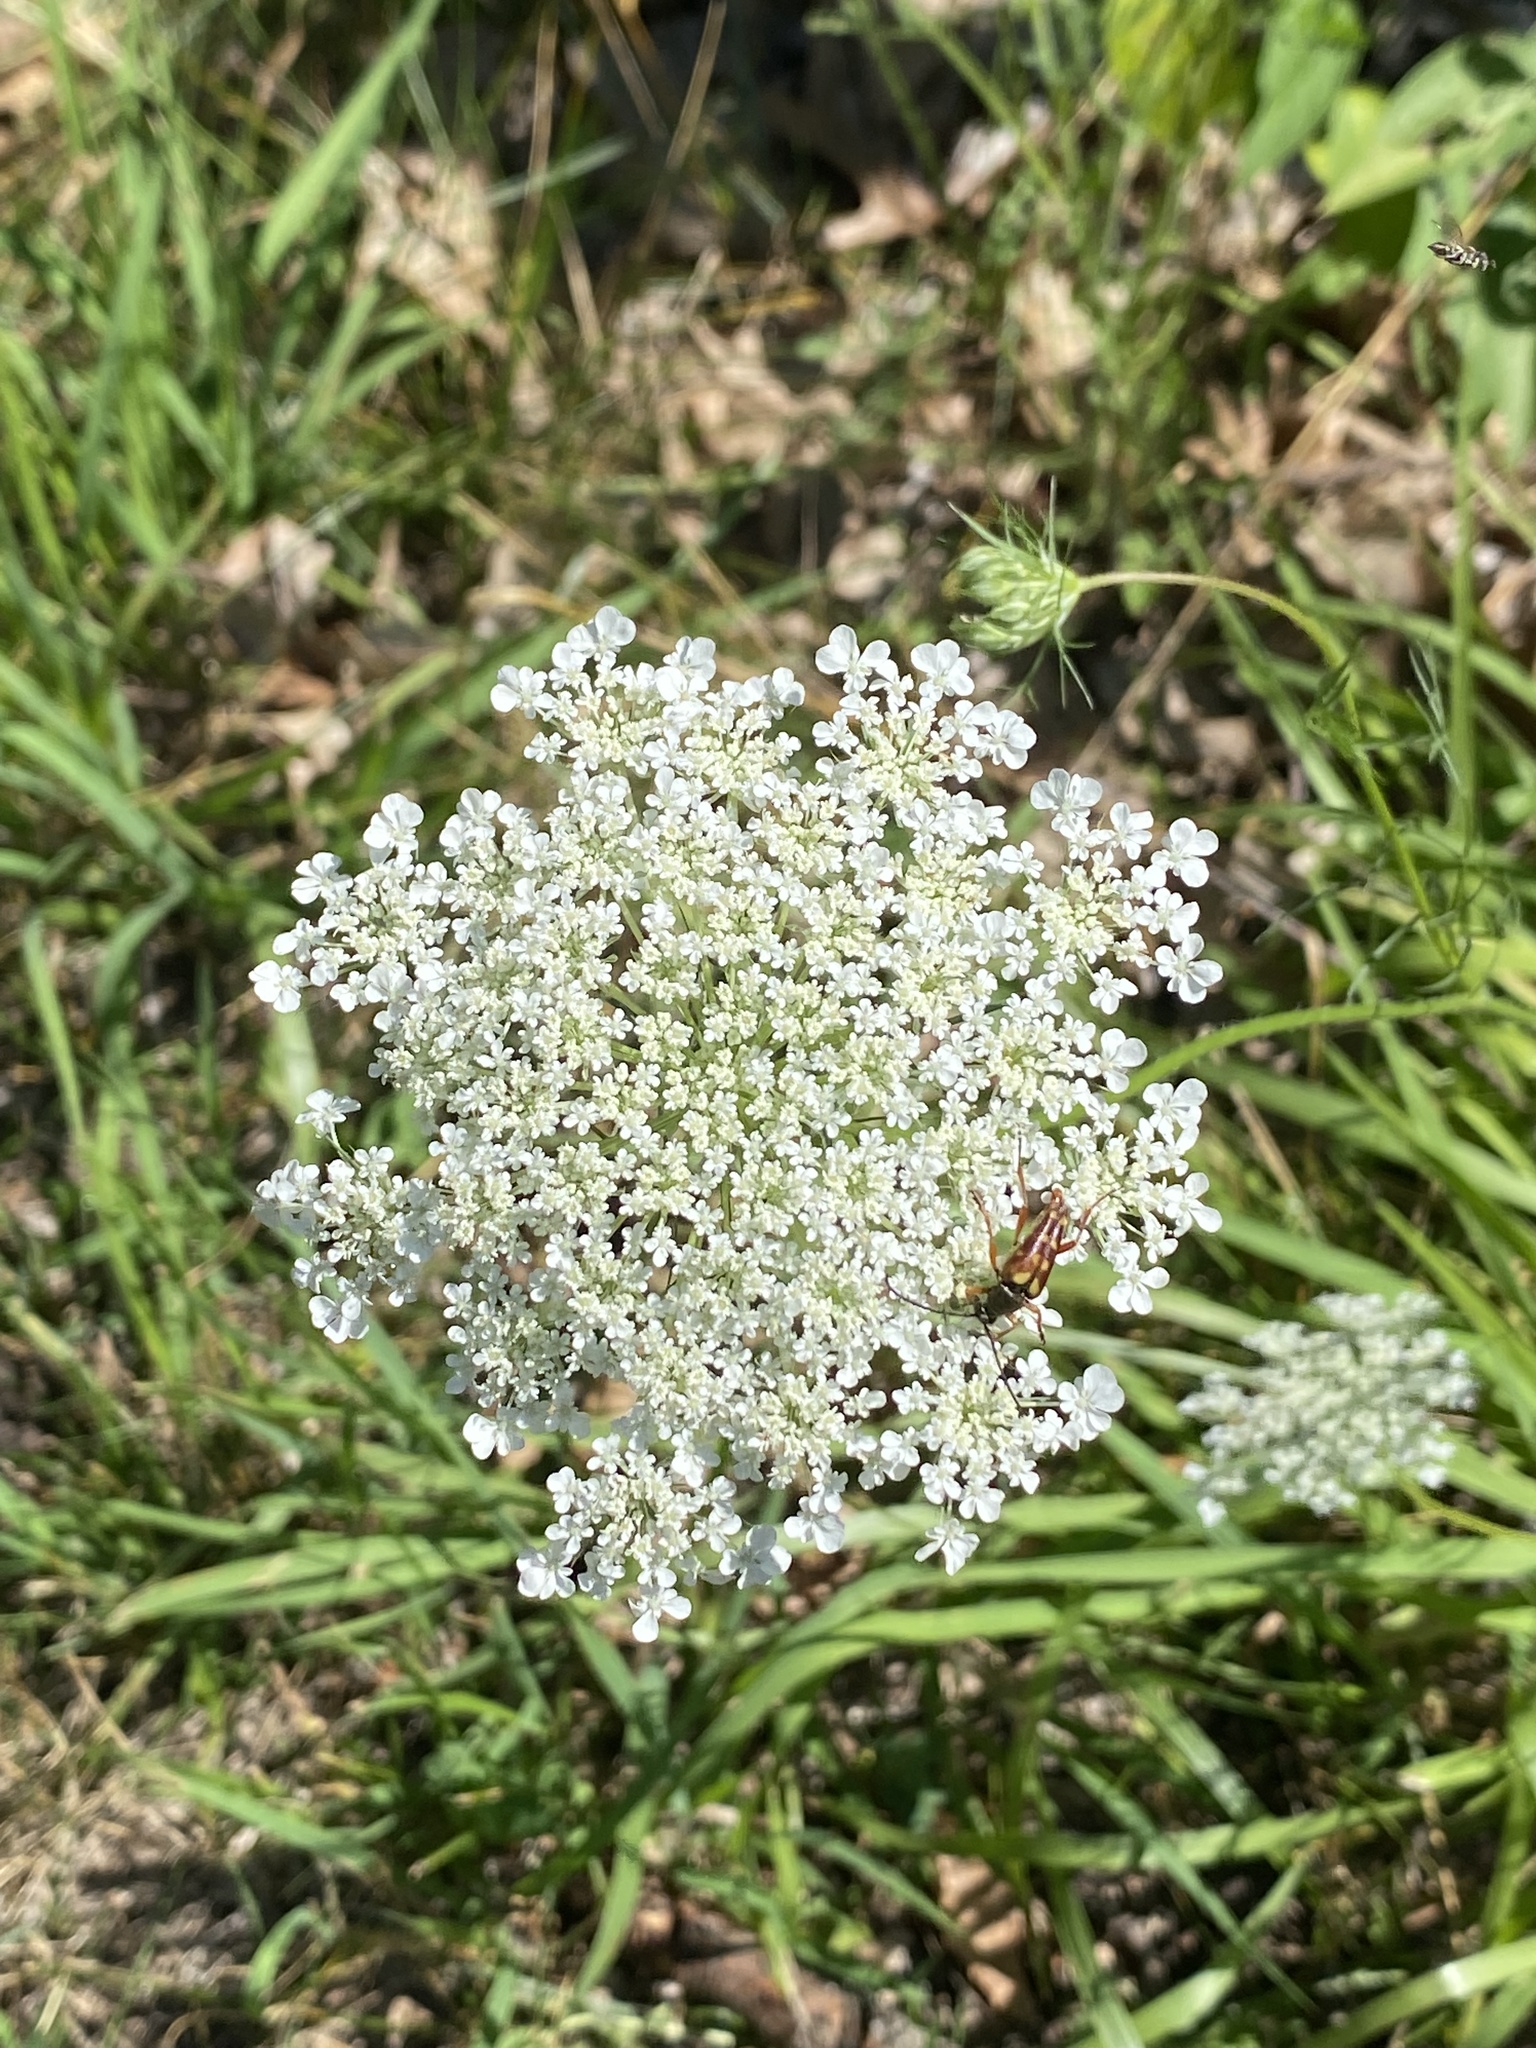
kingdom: Plantae
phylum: Tracheophyta
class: Magnoliopsida
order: Apiales
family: Apiaceae
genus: Daucus
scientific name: Daucus carota
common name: Wild carrot
